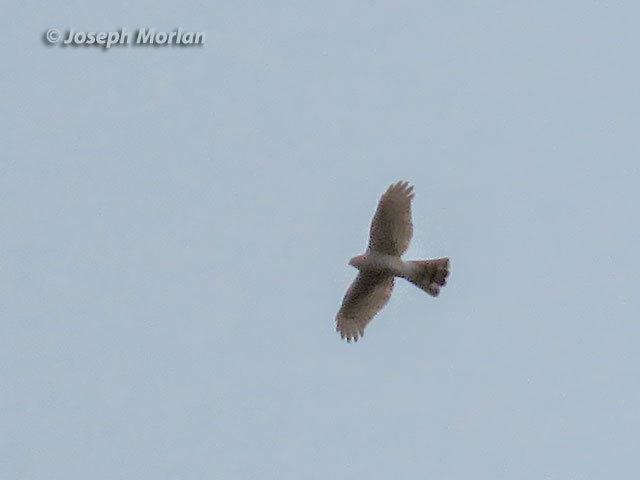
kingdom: Animalia
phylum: Chordata
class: Aves
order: Accipitriformes
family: Accipitridae
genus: Accipiter
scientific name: Accipiter striatus
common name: Sharp-shinned hawk
